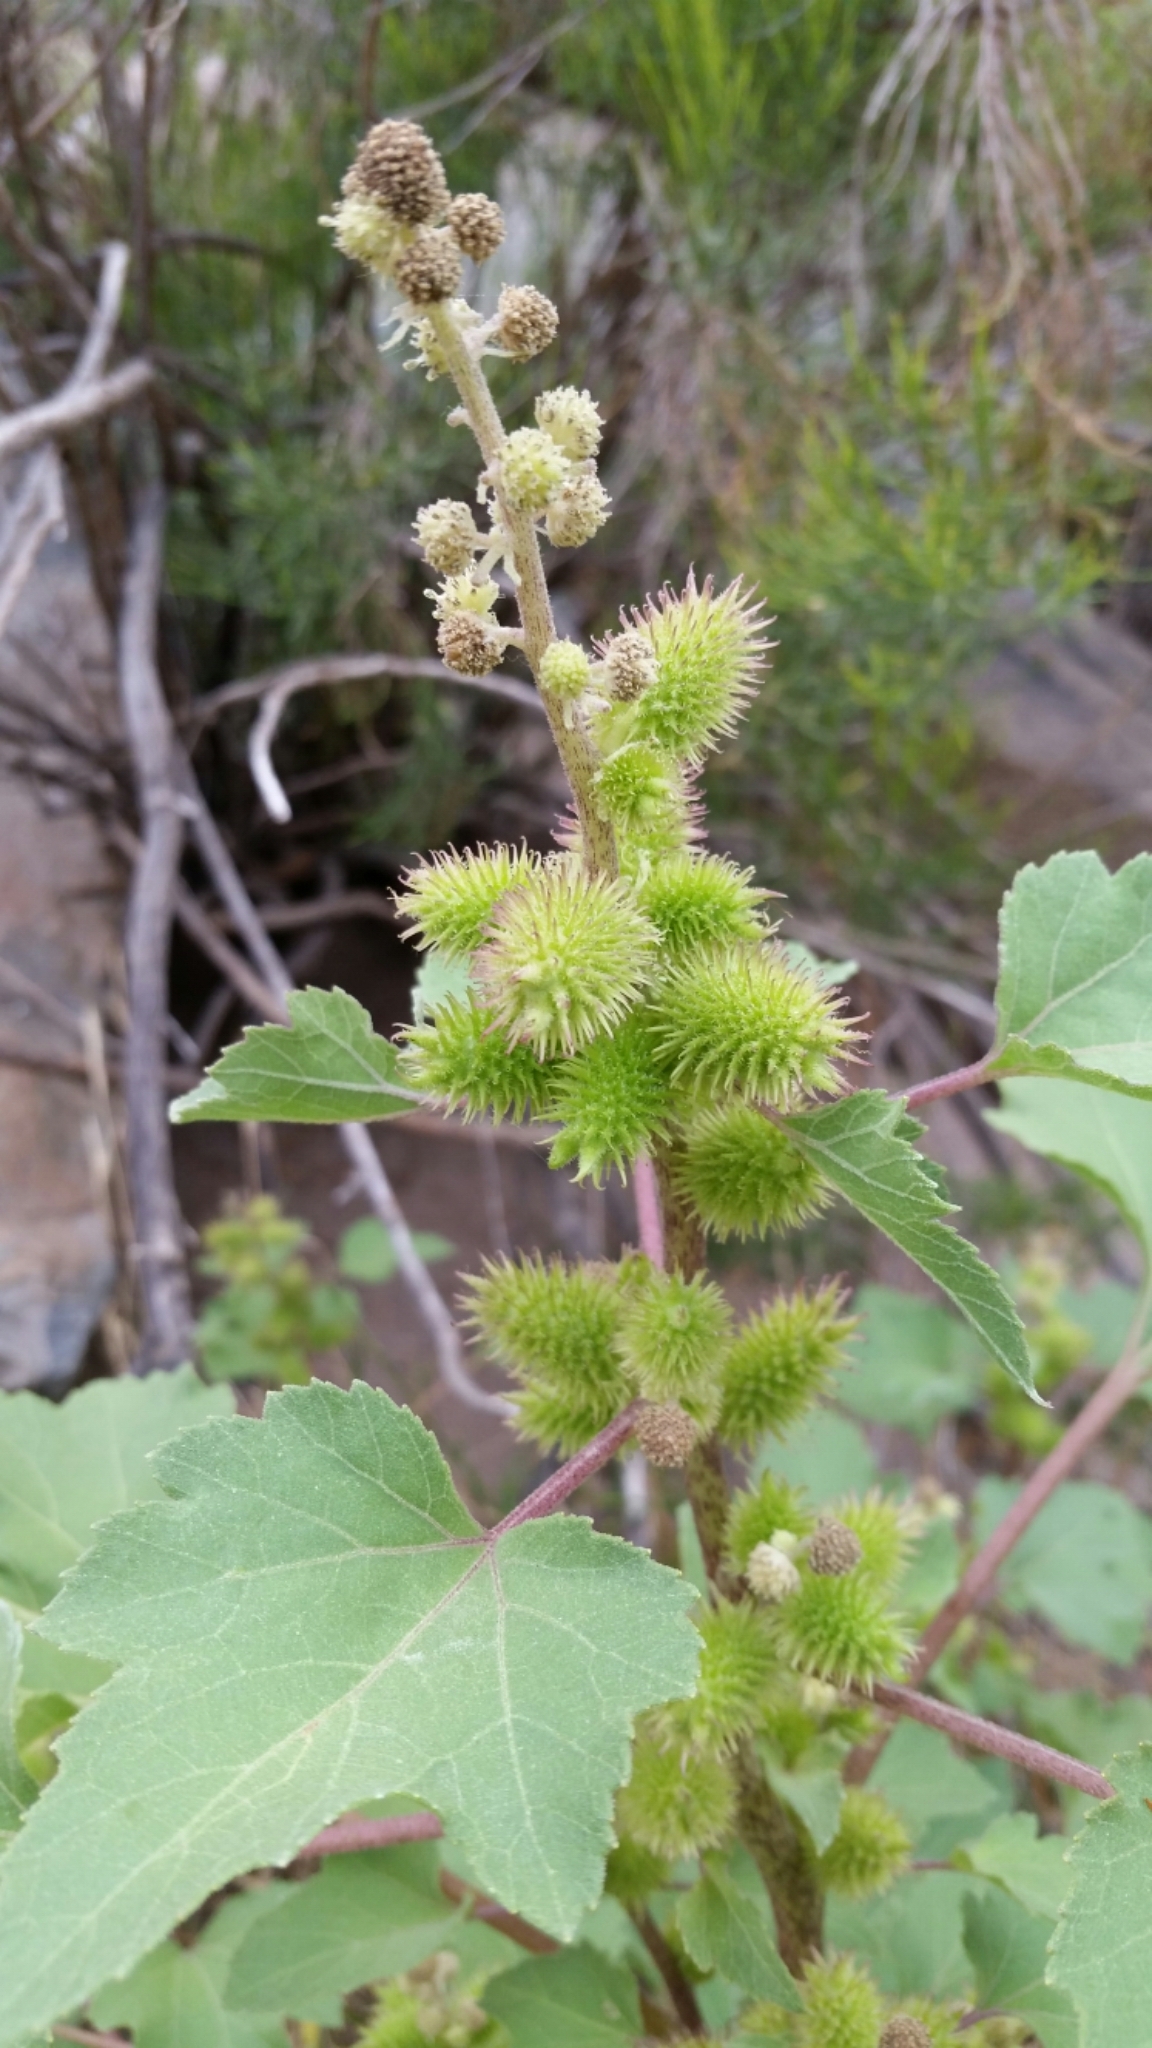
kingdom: Plantae
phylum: Tracheophyta
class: Magnoliopsida
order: Asterales
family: Asteraceae
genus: Xanthium
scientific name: Xanthium strumarium
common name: Rough cocklebur
